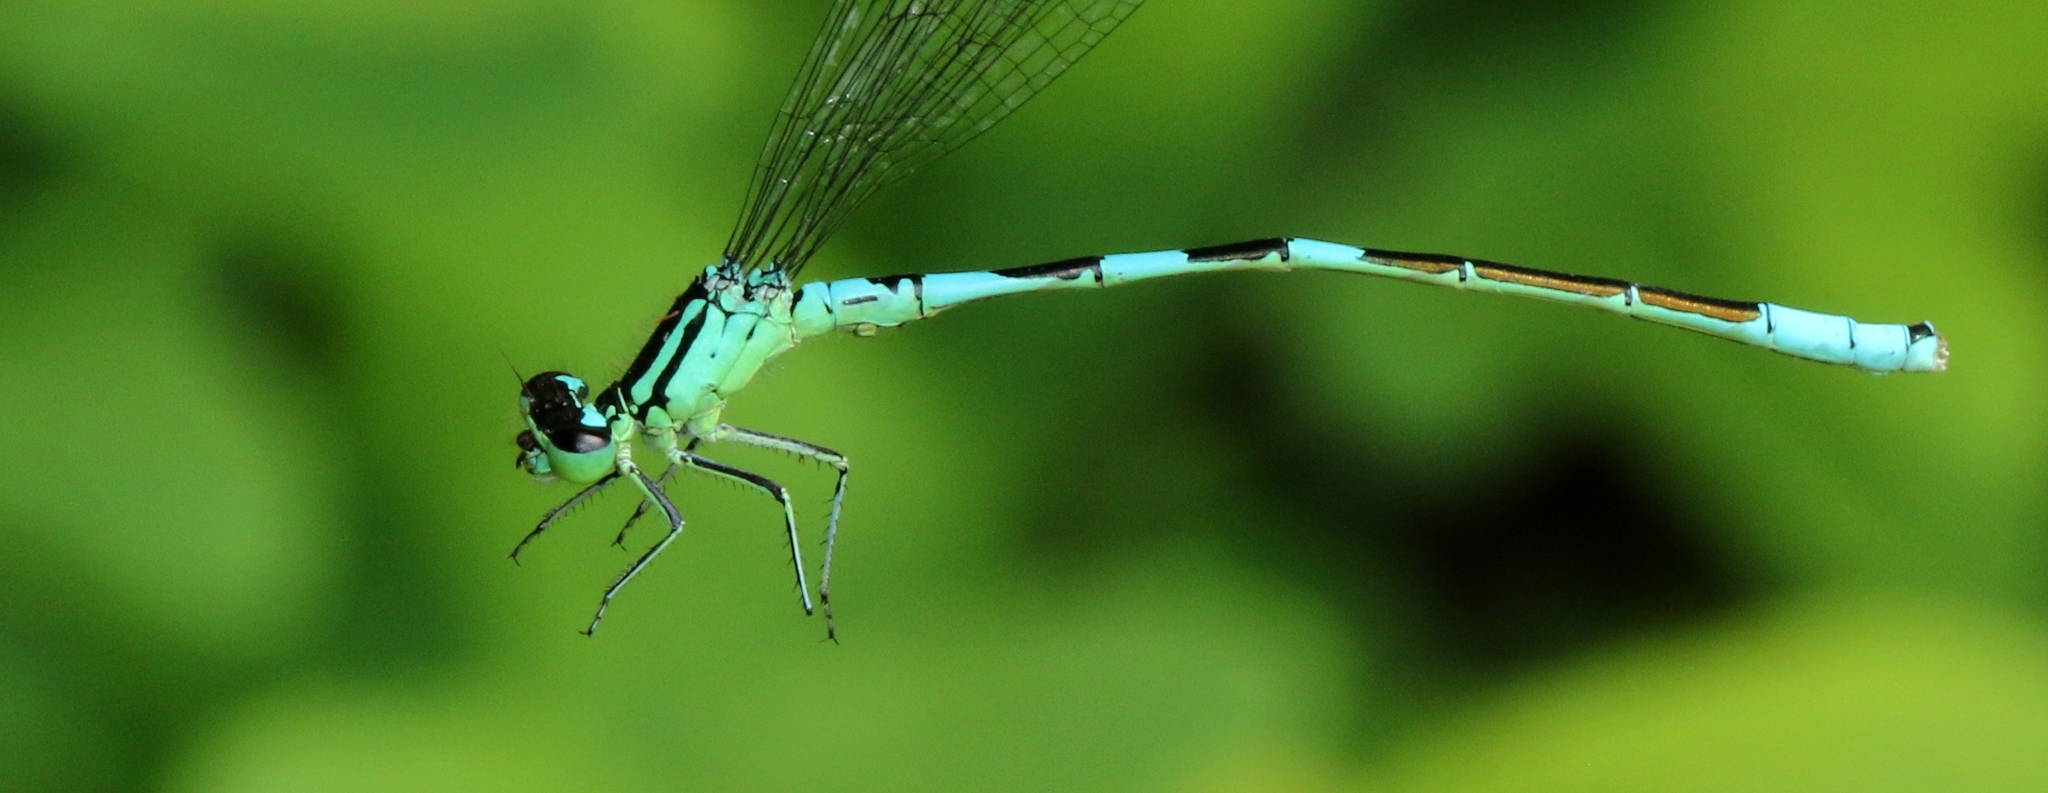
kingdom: Animalia
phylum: Arthropoda
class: Insecta
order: Odonata
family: Coenagrionidae
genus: Coenagrion
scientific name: Coenagrion resolutum
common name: Taiga bluet
